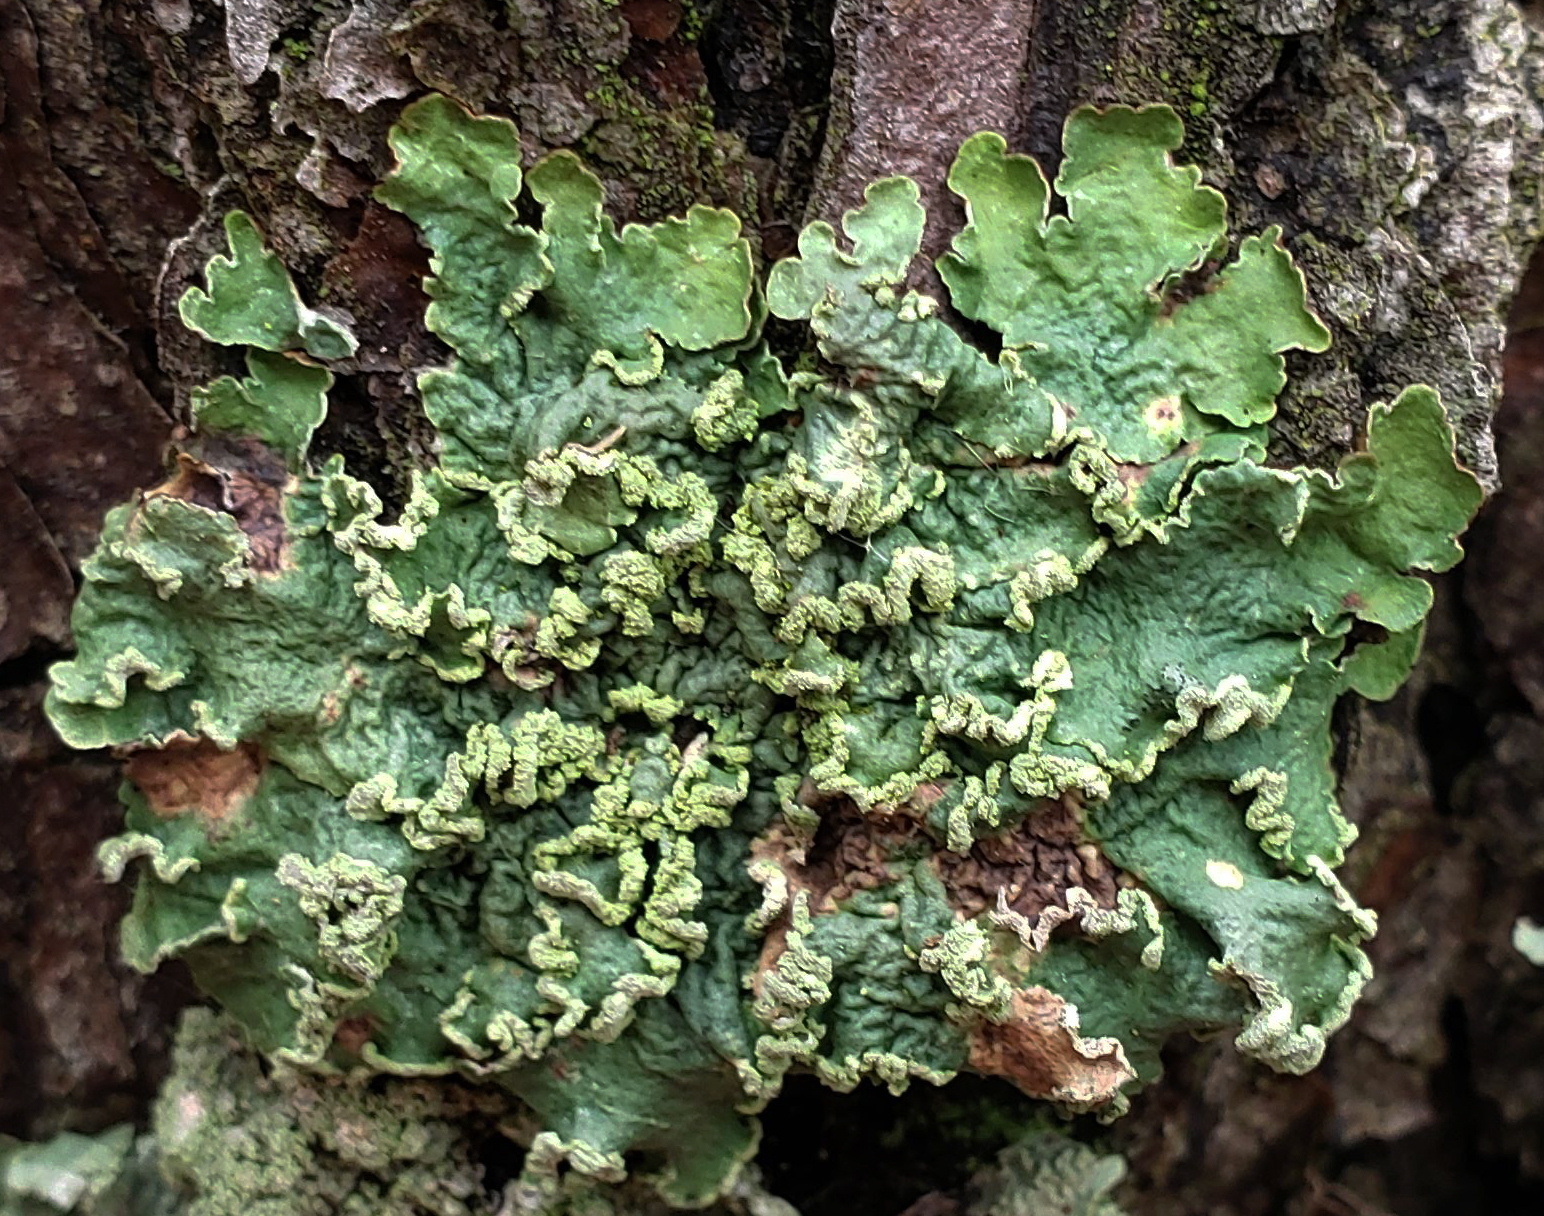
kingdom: Fungi
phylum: Ascomycota
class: Lecanoromycetes
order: Lecanorales
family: Parmeliaceae
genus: Flavopunctelia
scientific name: Flavopunctelia soredica
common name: Powder-edged speckled greenshield
